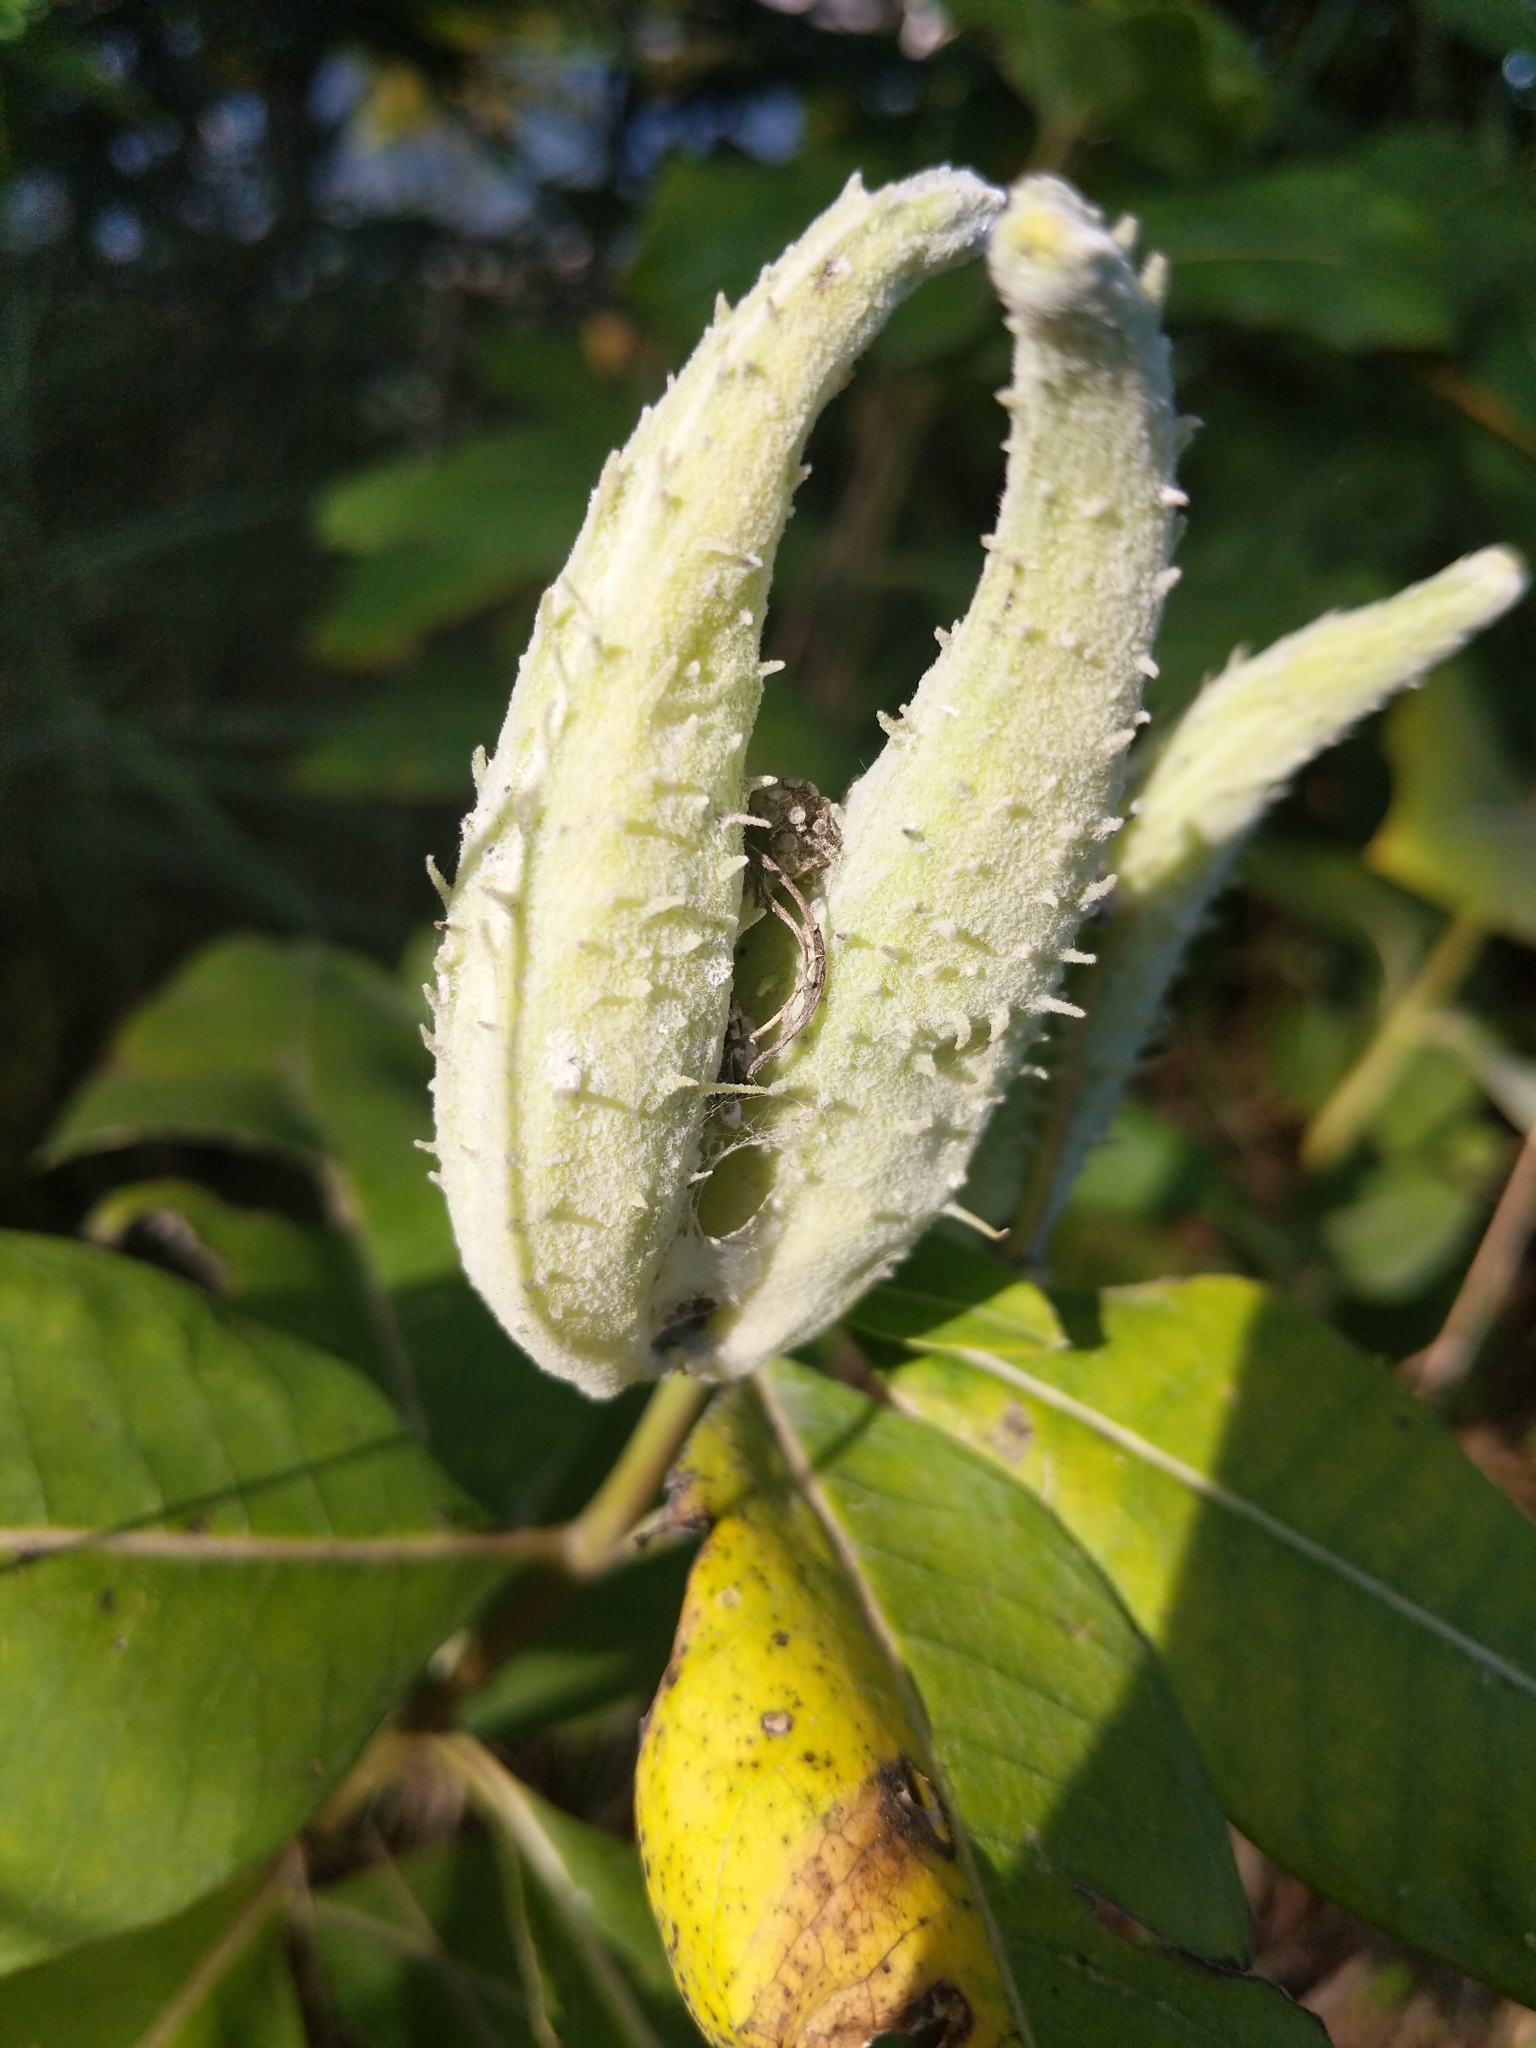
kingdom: Plantae
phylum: Tracheophyta
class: Magnoliopsida
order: Gentianales
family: Apocynaceae
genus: Asclepias
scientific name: Asclepias syriaca
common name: Common milkweed
